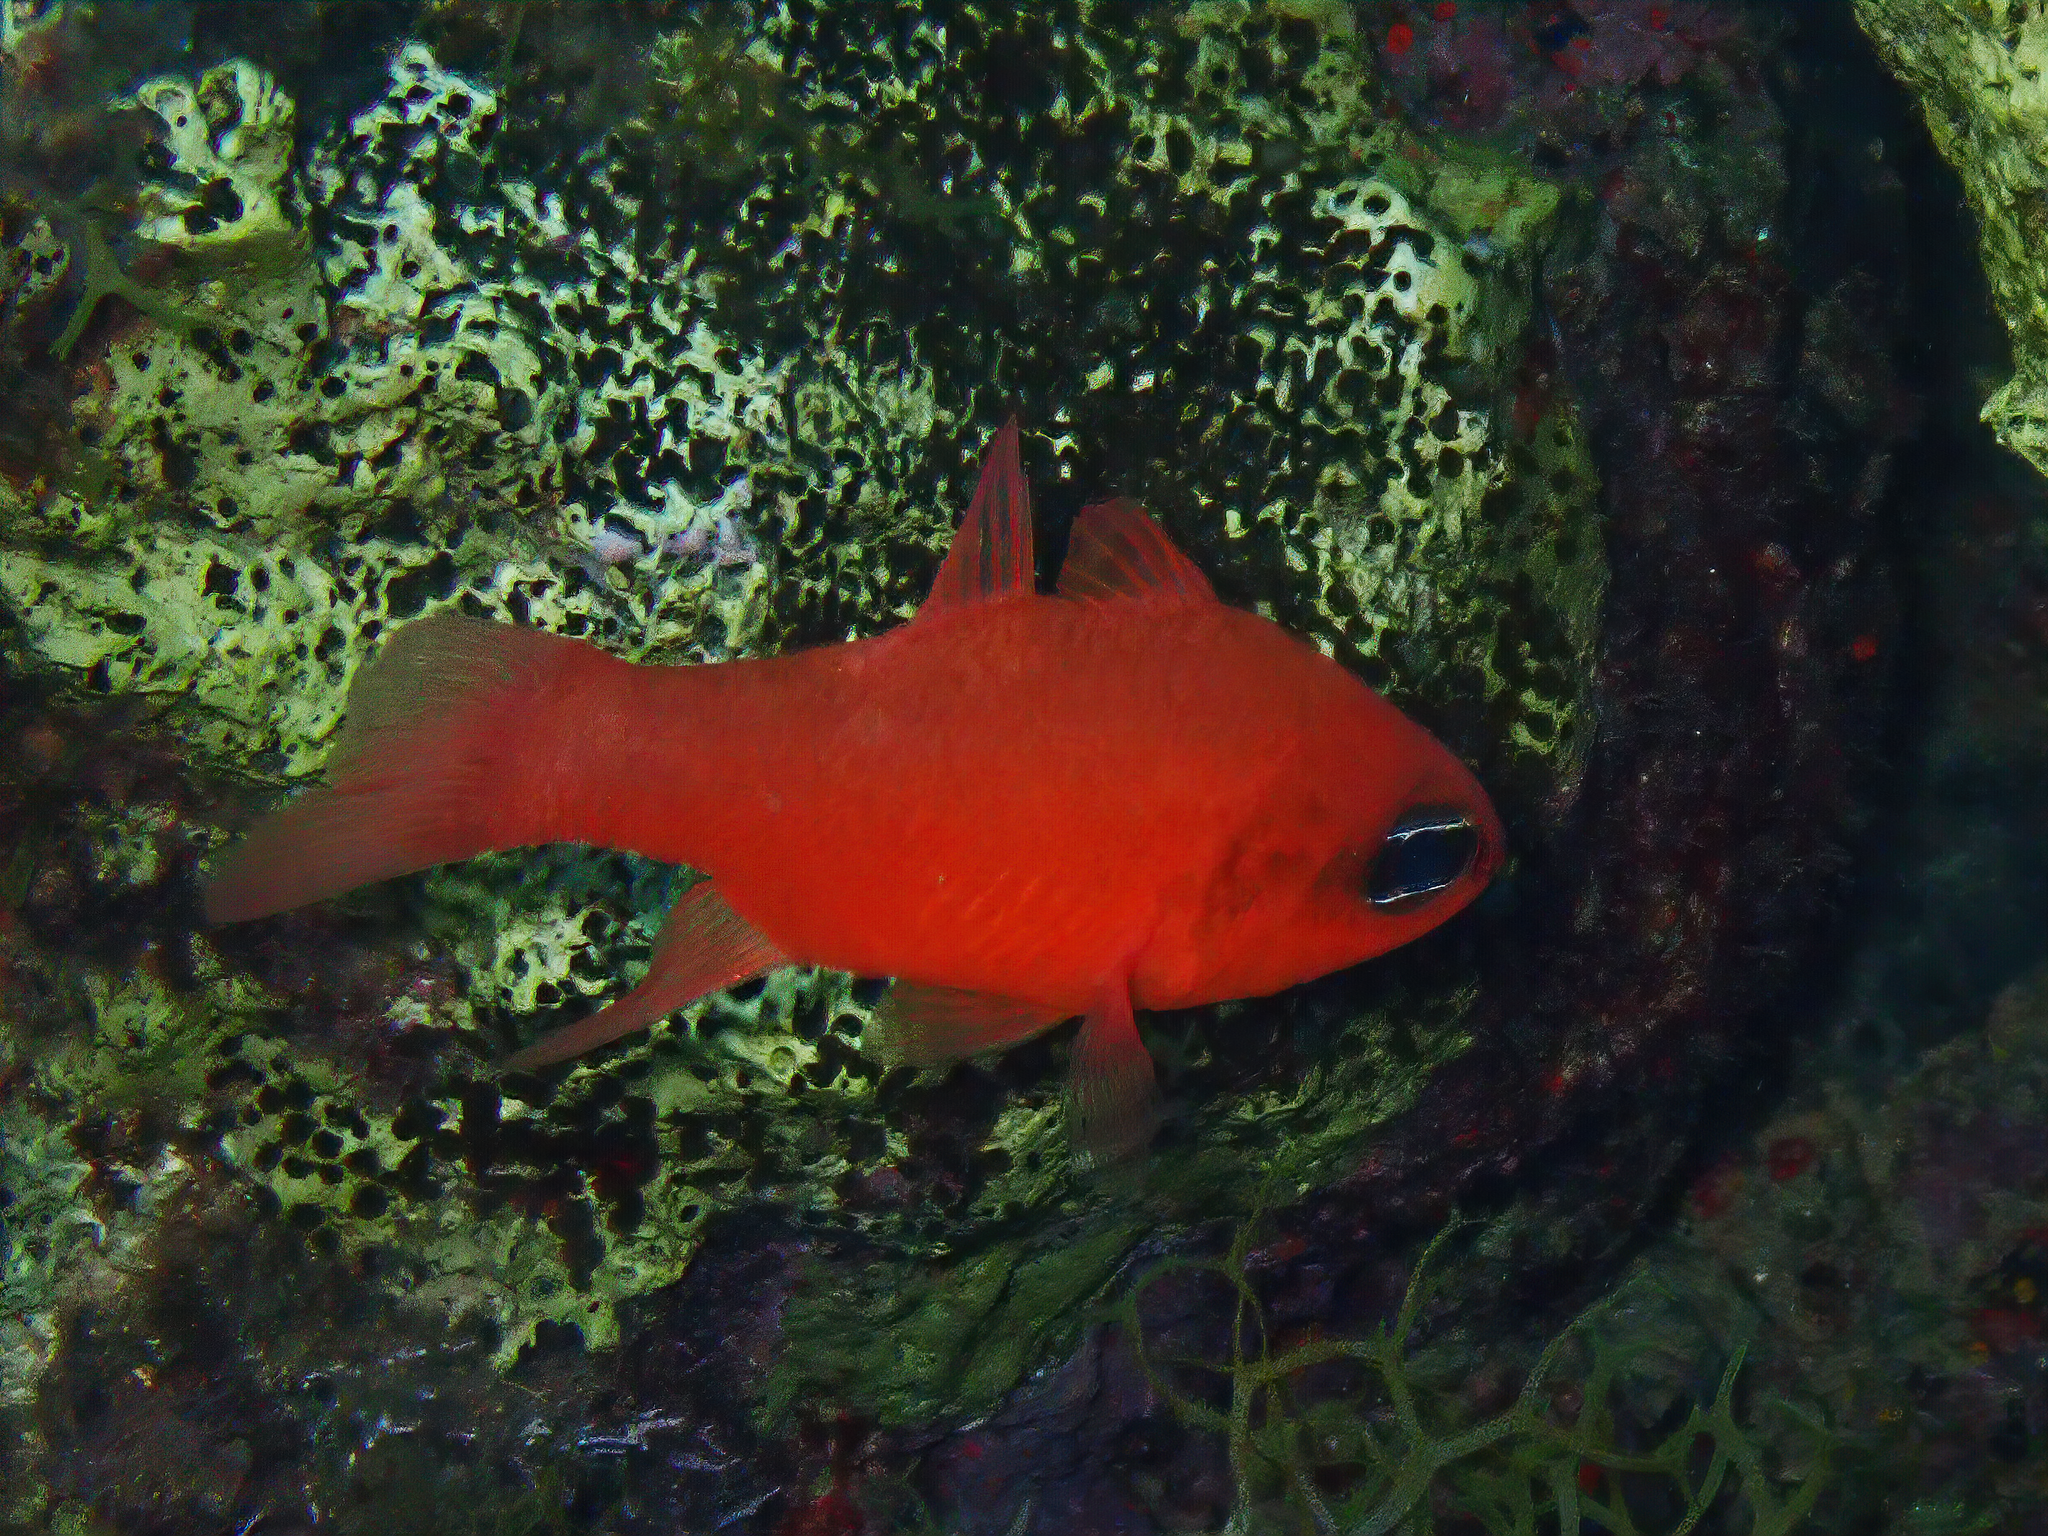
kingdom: Animalia
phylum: Chordata
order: Perciformes
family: Apogonidae
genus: Apogon
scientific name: Apogon imberbis
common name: Cardinal fish
